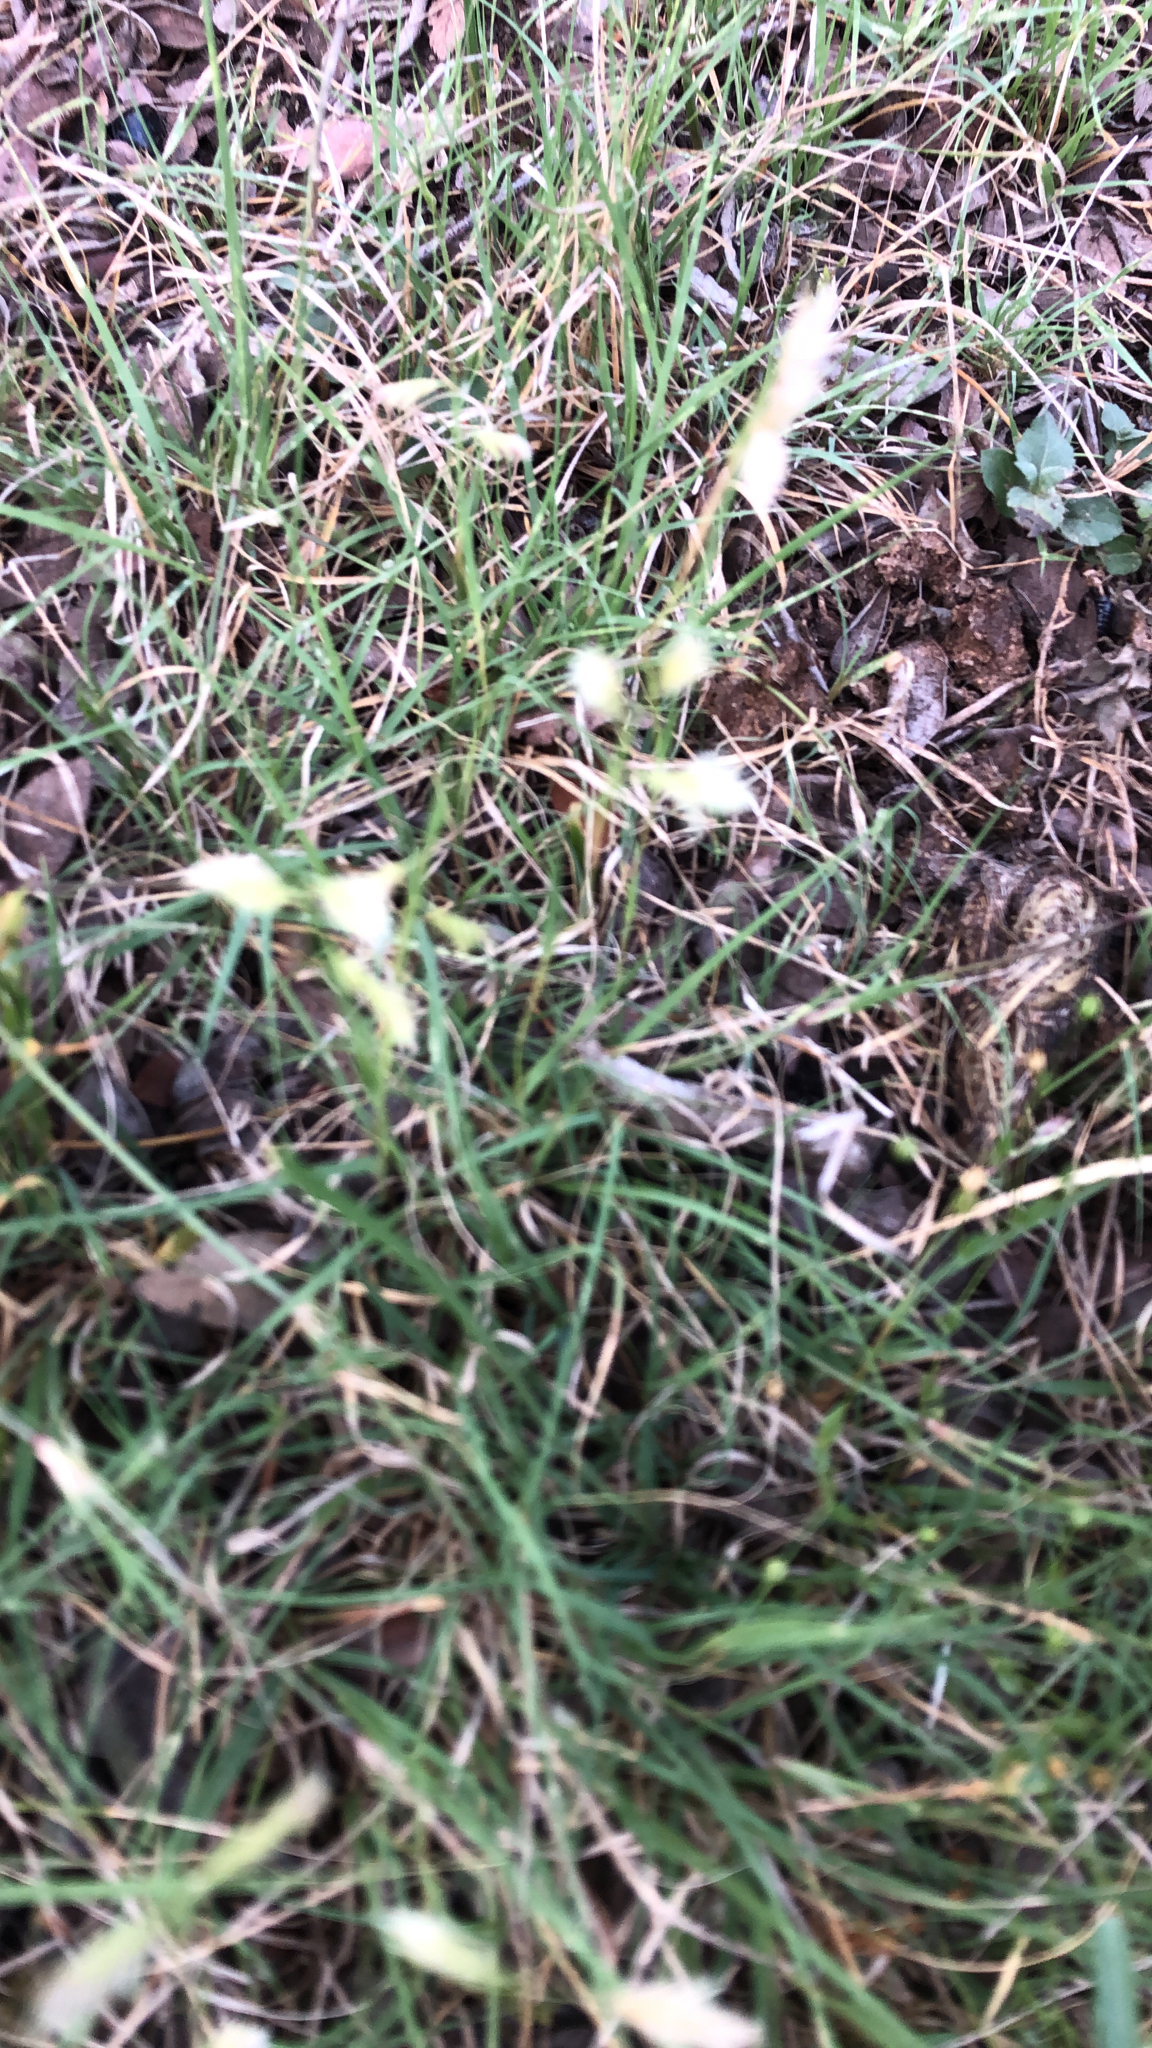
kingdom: Plantae
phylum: Tracheophyta
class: Liliopsida
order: Poales
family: Poaceae
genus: Bouteloua
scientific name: Bouteloua dactyloides
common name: Buffalo grass
